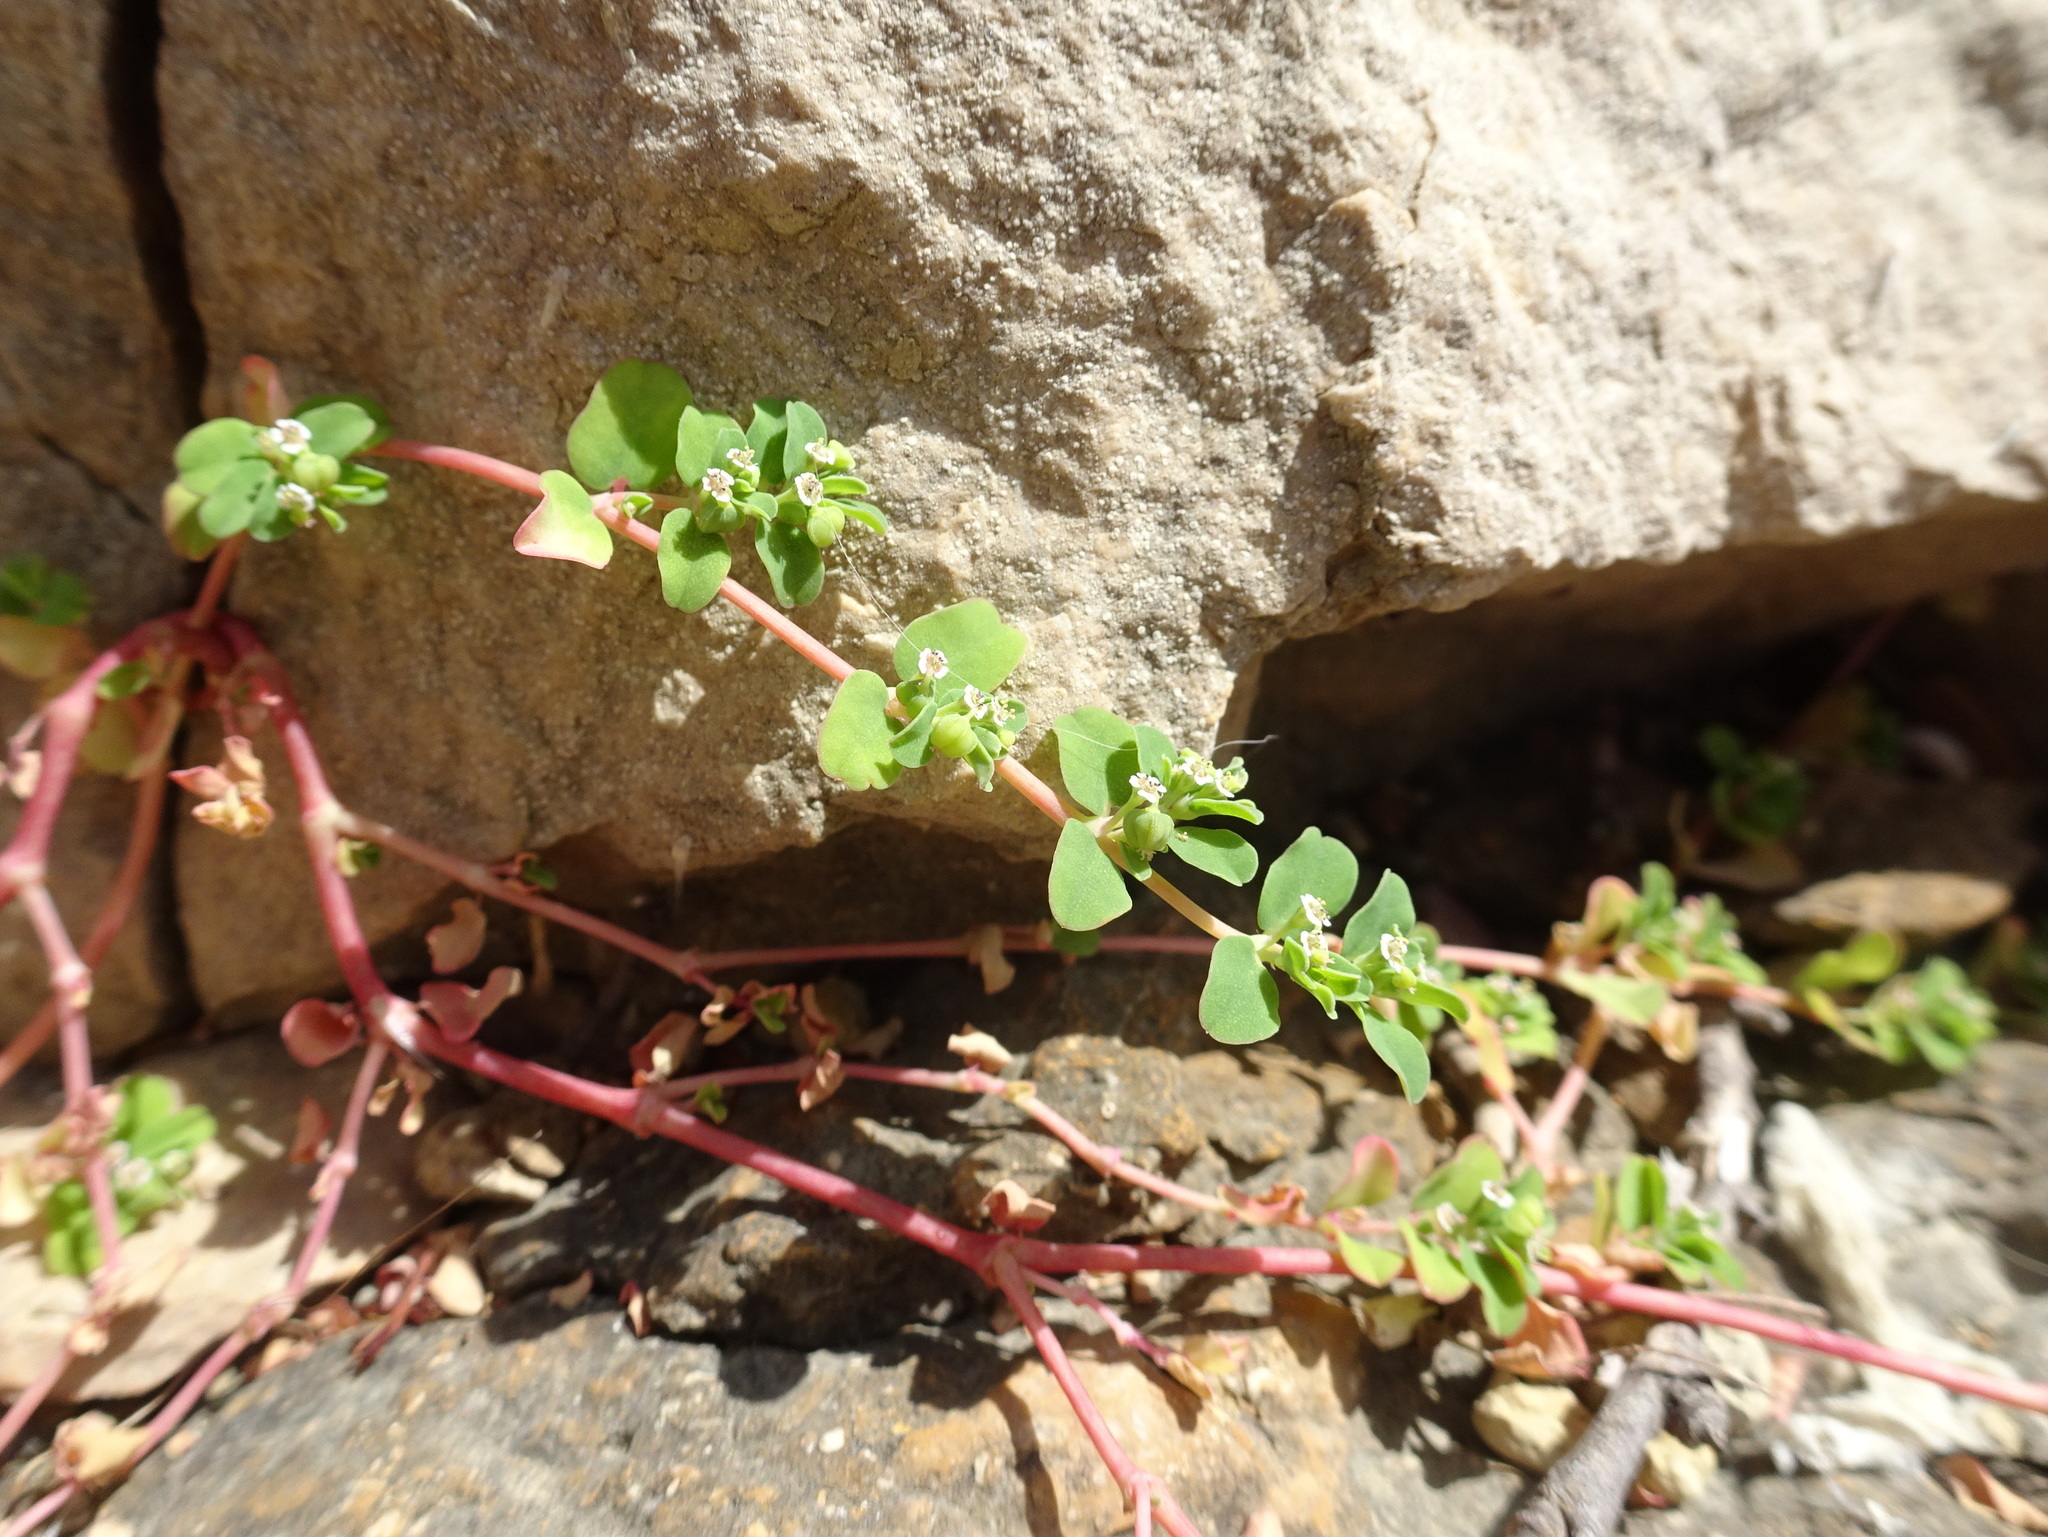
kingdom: Plantae
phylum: Tracheophyta
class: Magnoliopsida
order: Malpighiales
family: Euphorbiaceae
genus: Euphorbia
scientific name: Euphorbia serpens
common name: Matted sandmat
